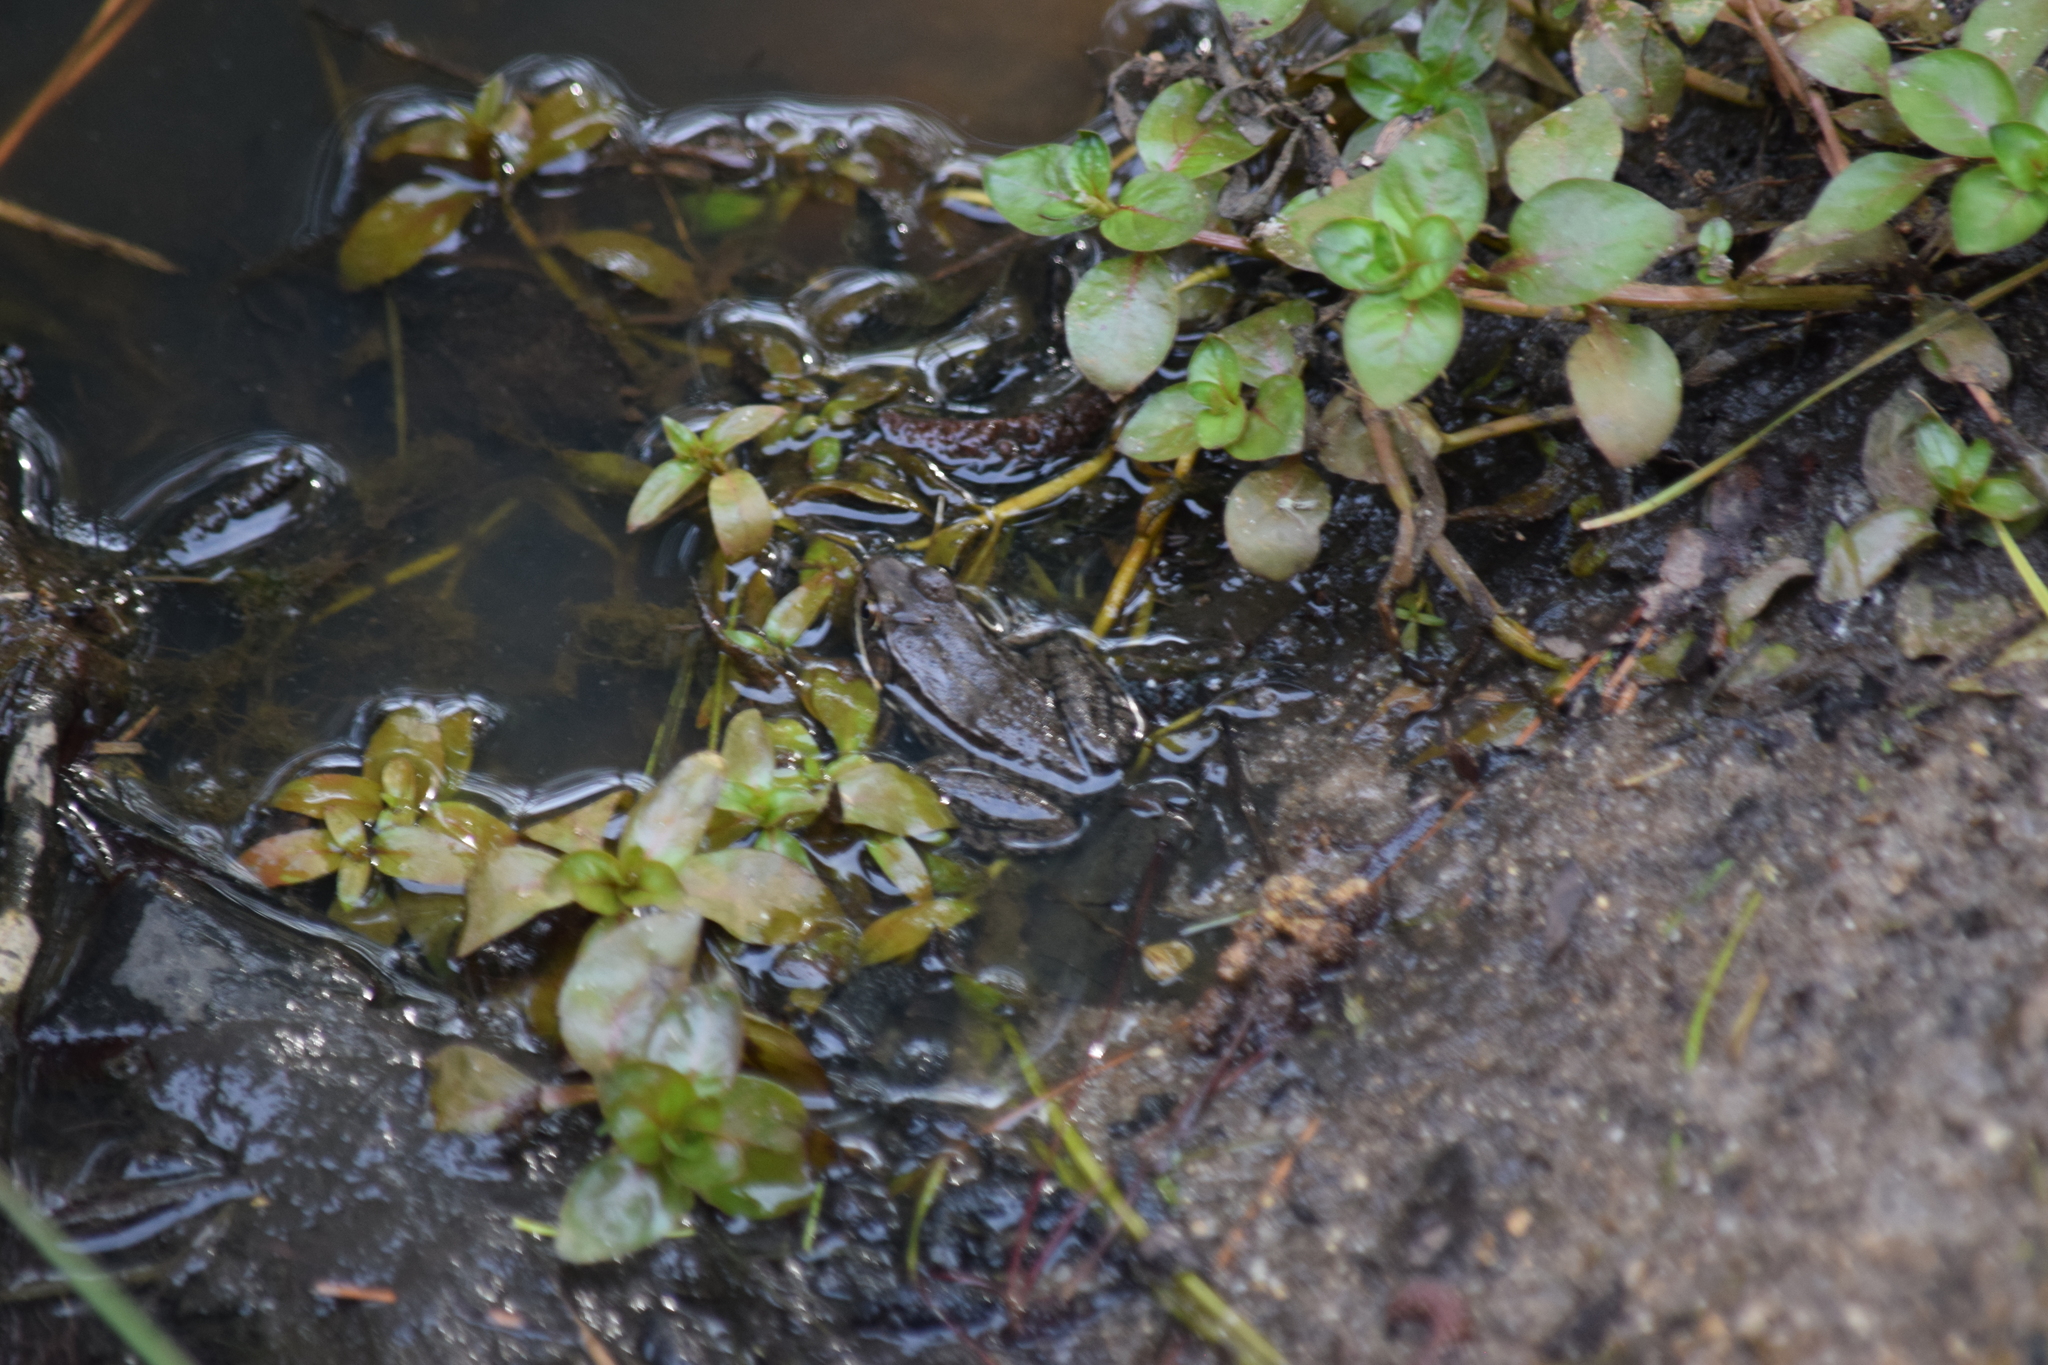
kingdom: Animalia
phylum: Chordata
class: Amphibia
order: Anura
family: Ranidae
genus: Lithobates
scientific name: Lithobates clamitans
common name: Green frog
